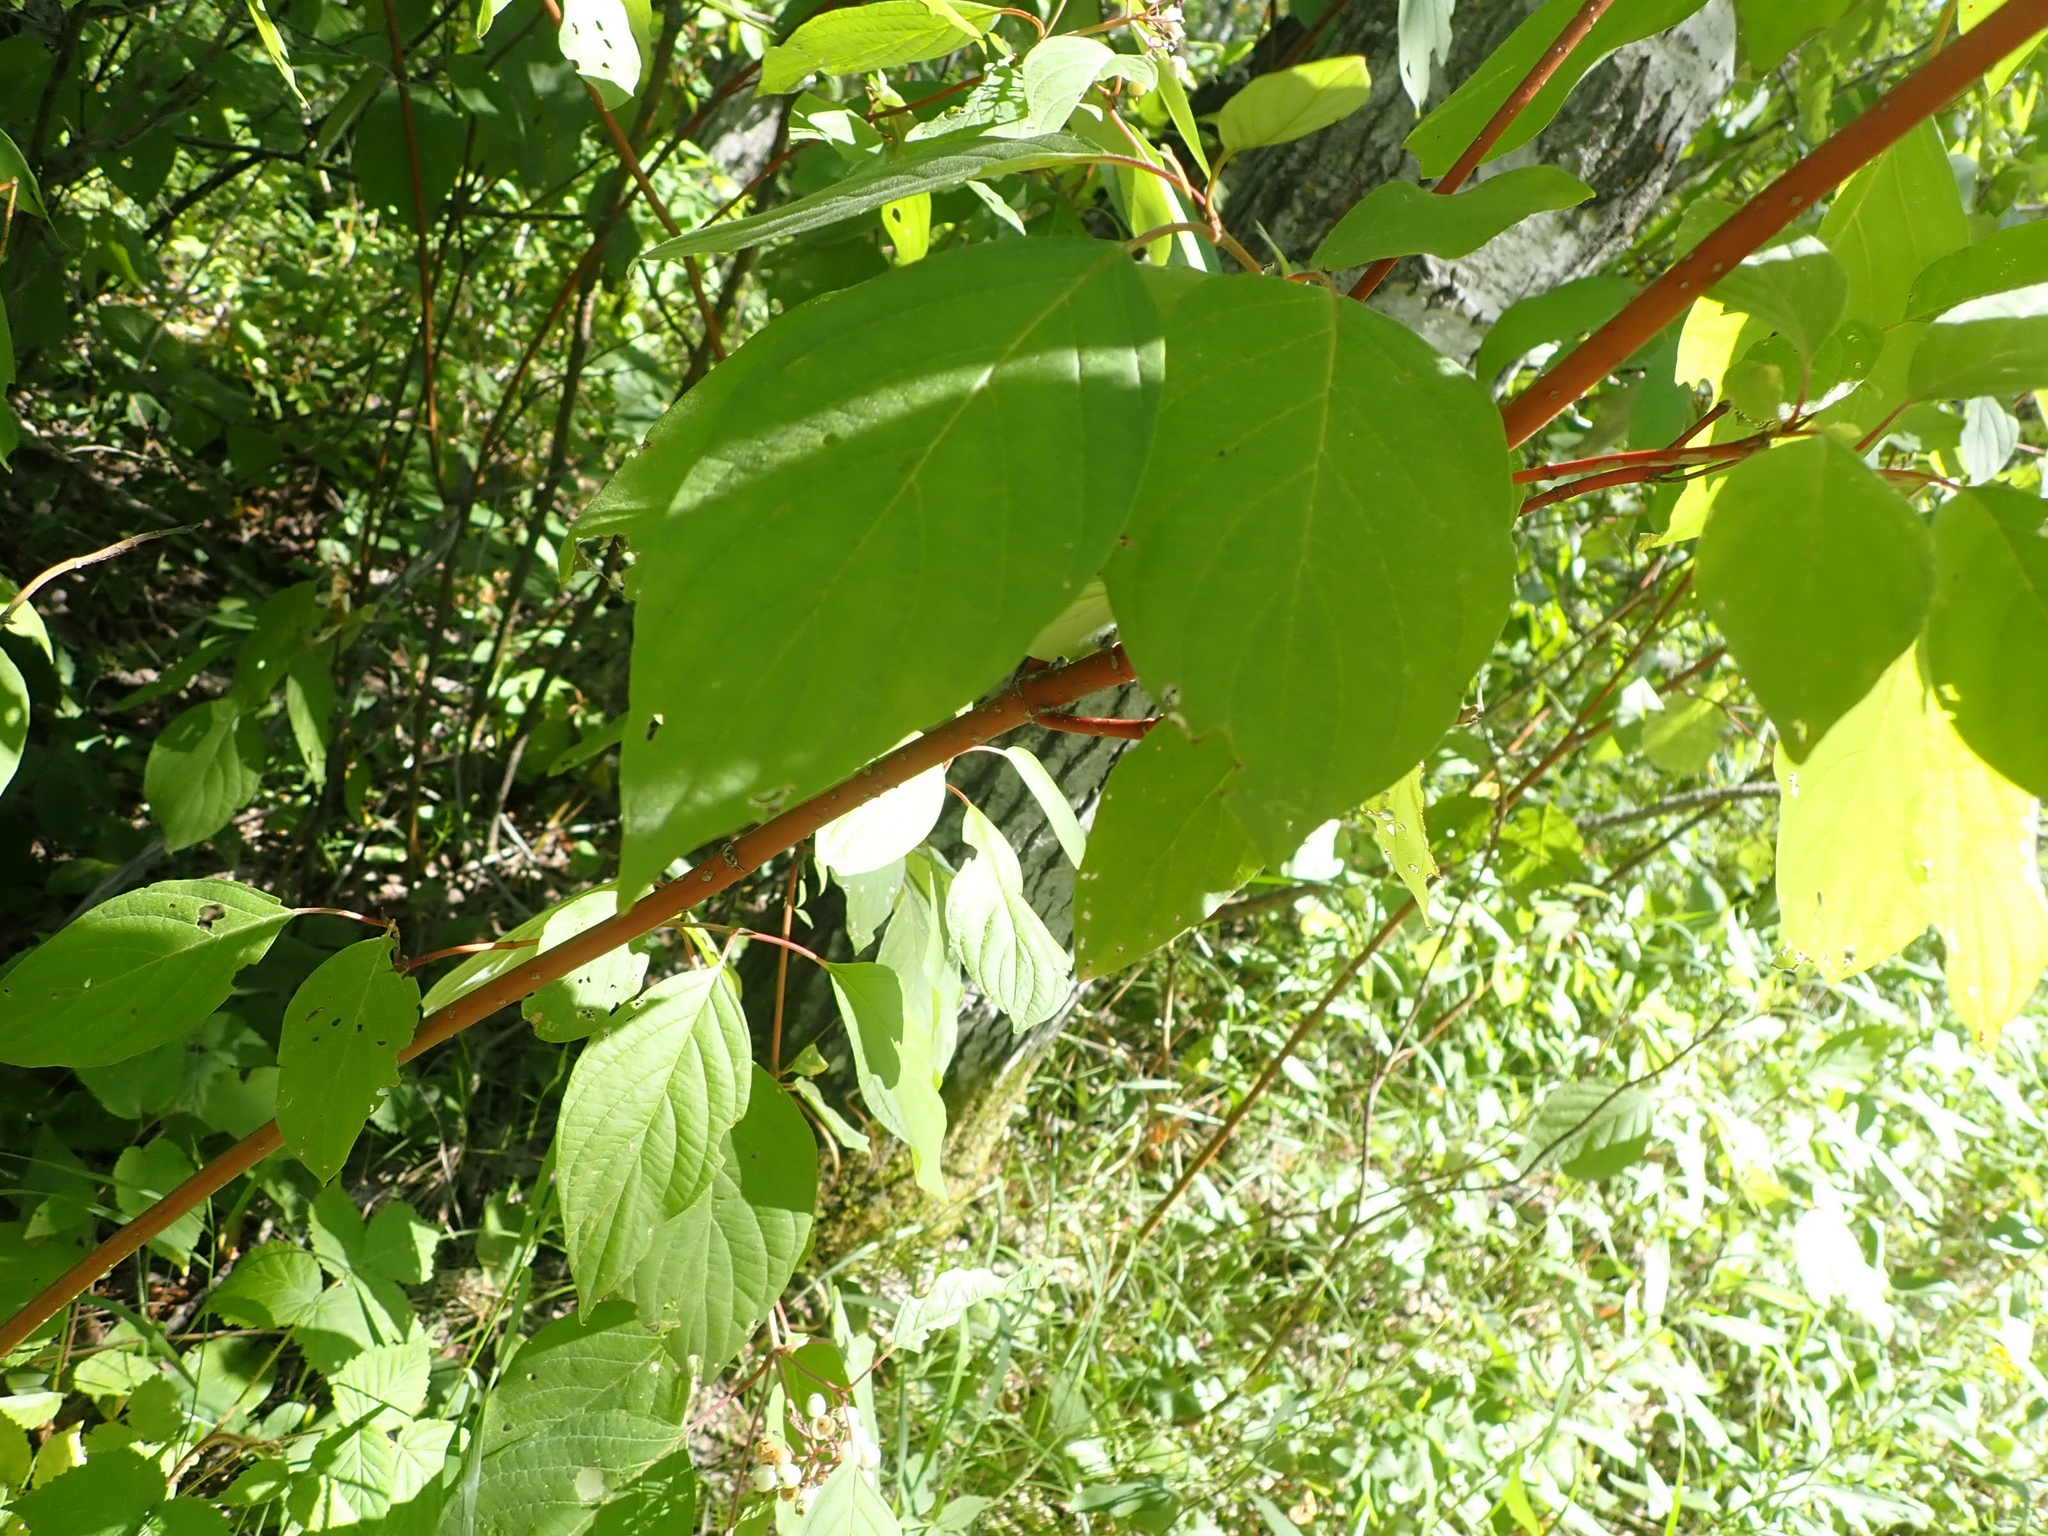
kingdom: Plantae
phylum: Tracheophyta
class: Magnoliopsida
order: Cornales
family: Cornaceae
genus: Cornus
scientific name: Cornus sericea
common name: Red-osier dogwood
